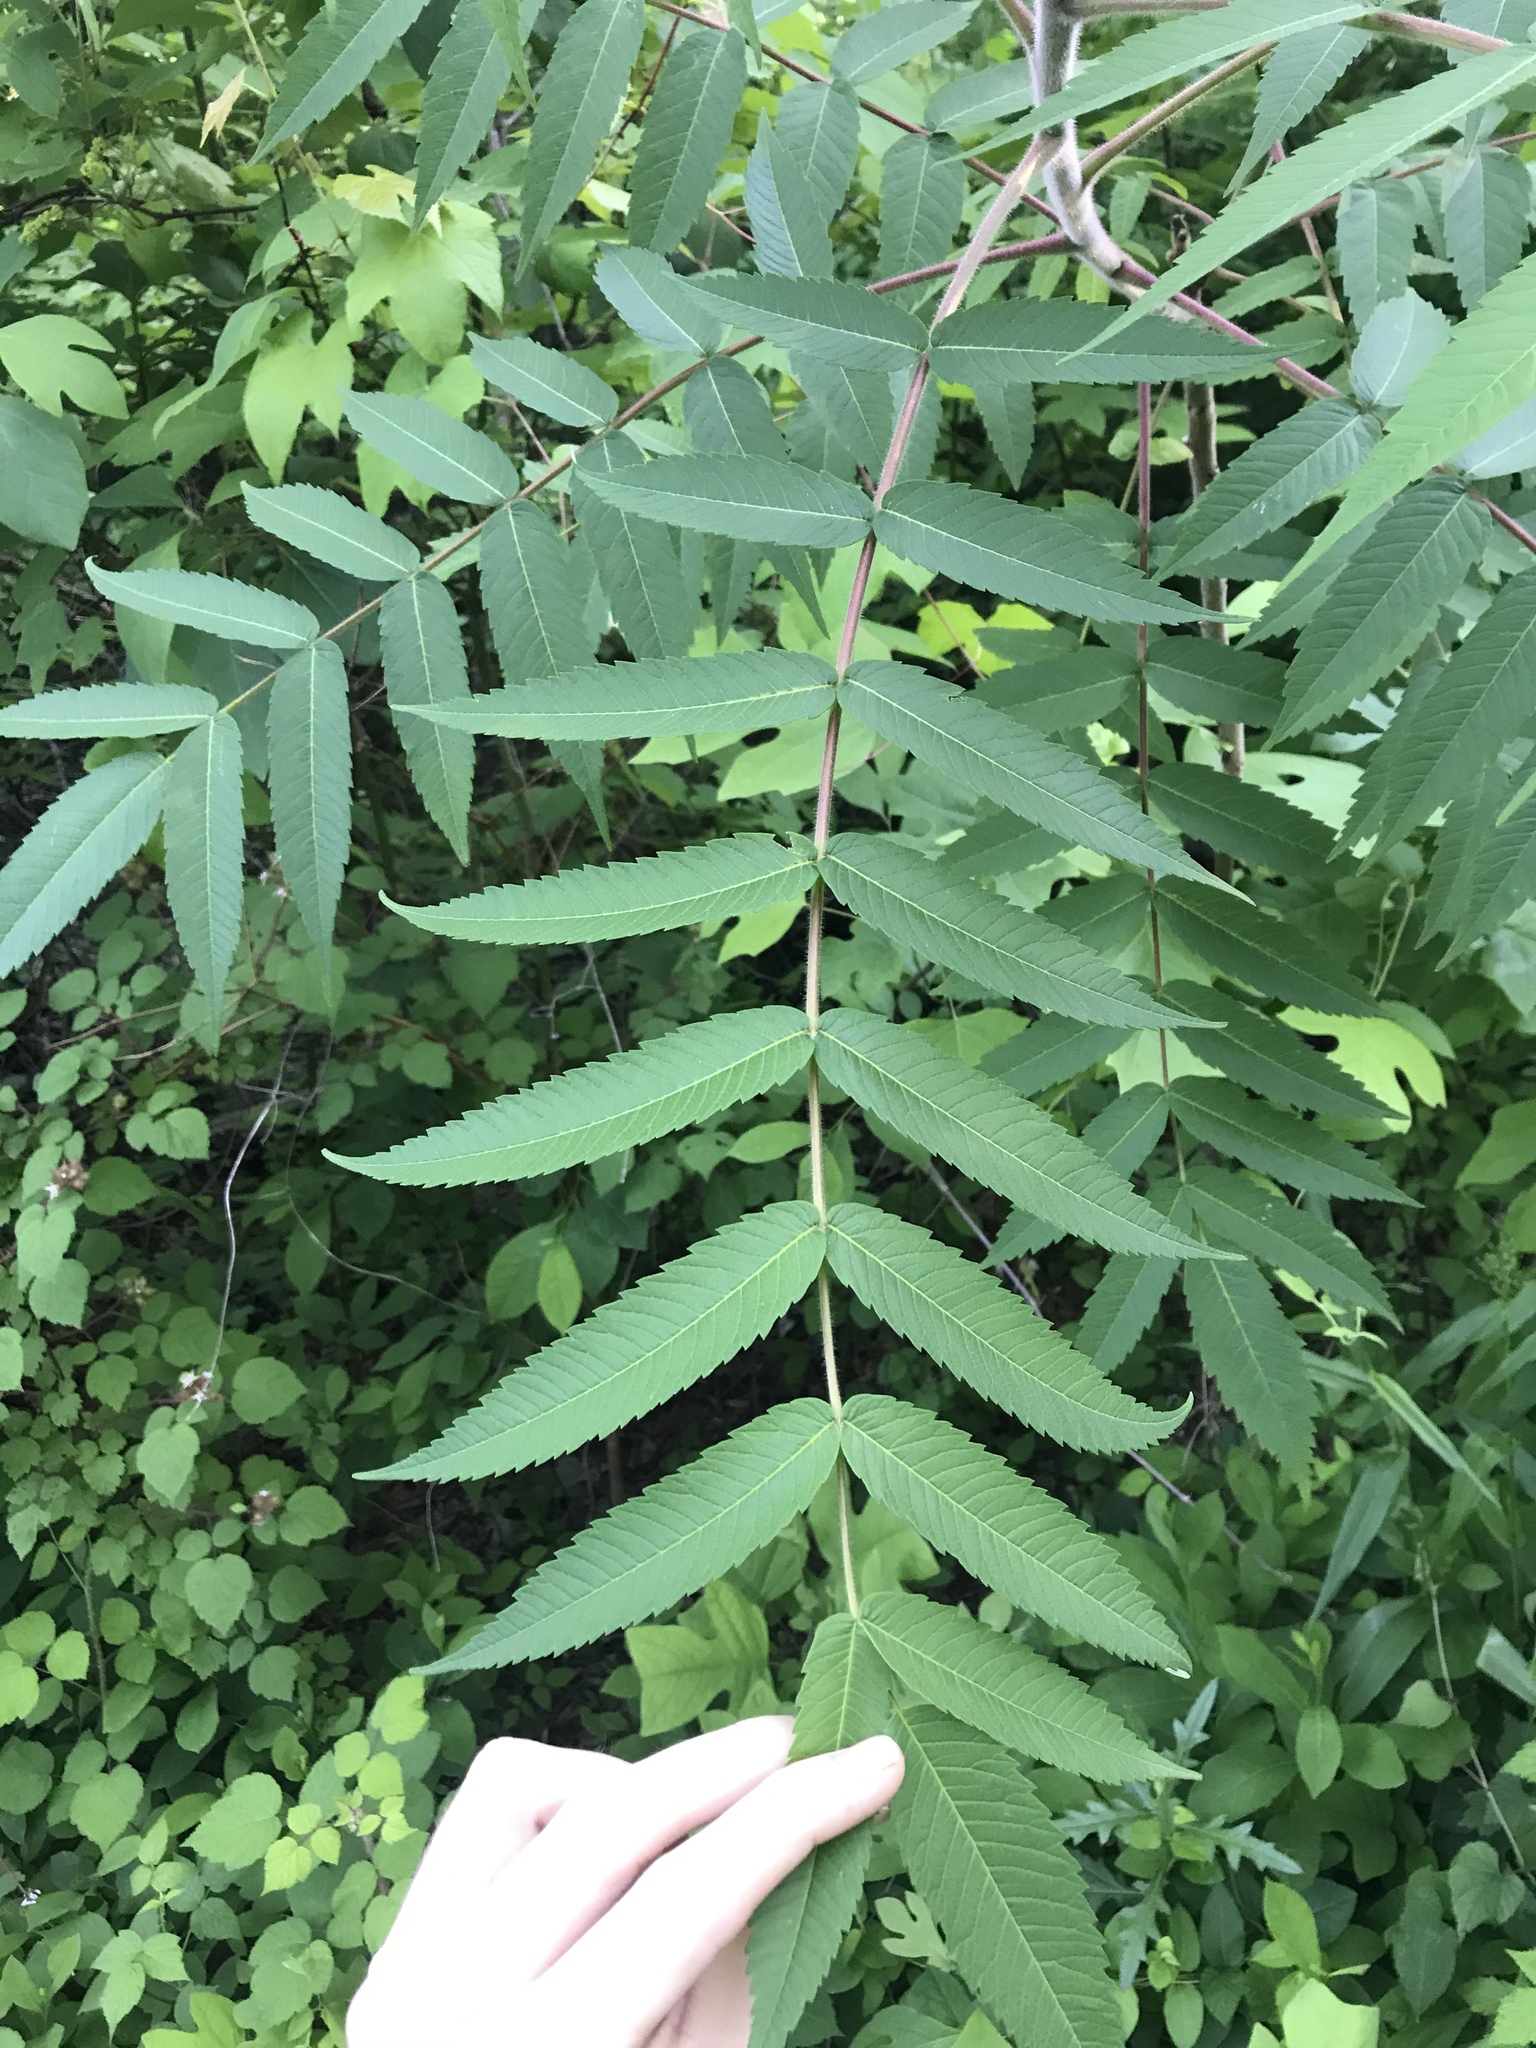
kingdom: Plantae
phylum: Tracheophyta
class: Magnoliopsida
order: Sapindales
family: Anacardiaceae
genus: Rhus
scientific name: Rhus typhina
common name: Staghorn sumac
